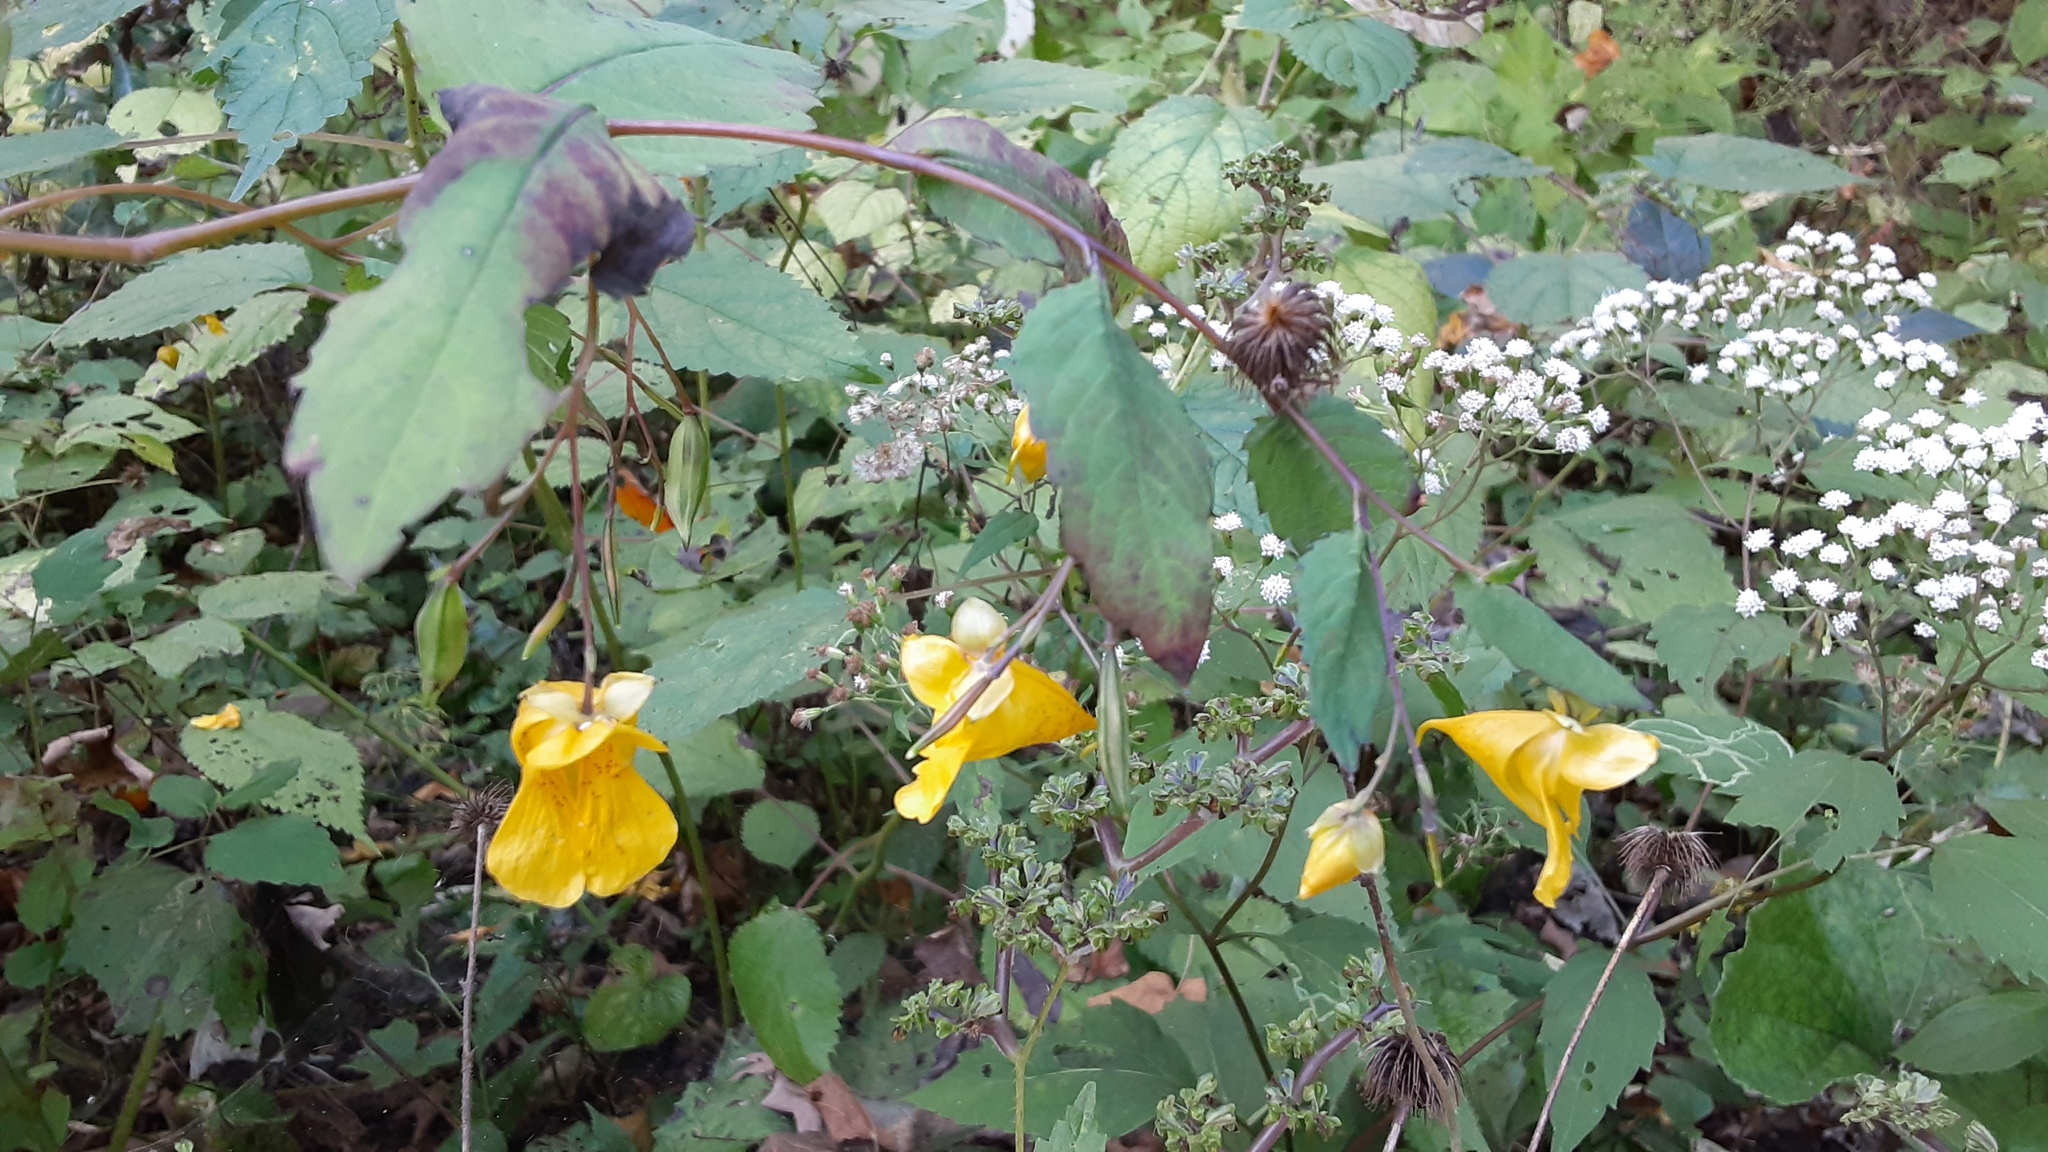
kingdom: Plantae
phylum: Tracheophyta
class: Magnoliopsida
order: Ericales
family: Balsaminaceae
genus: Impatiens
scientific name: Impatiens pallida
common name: Pale snapweed
